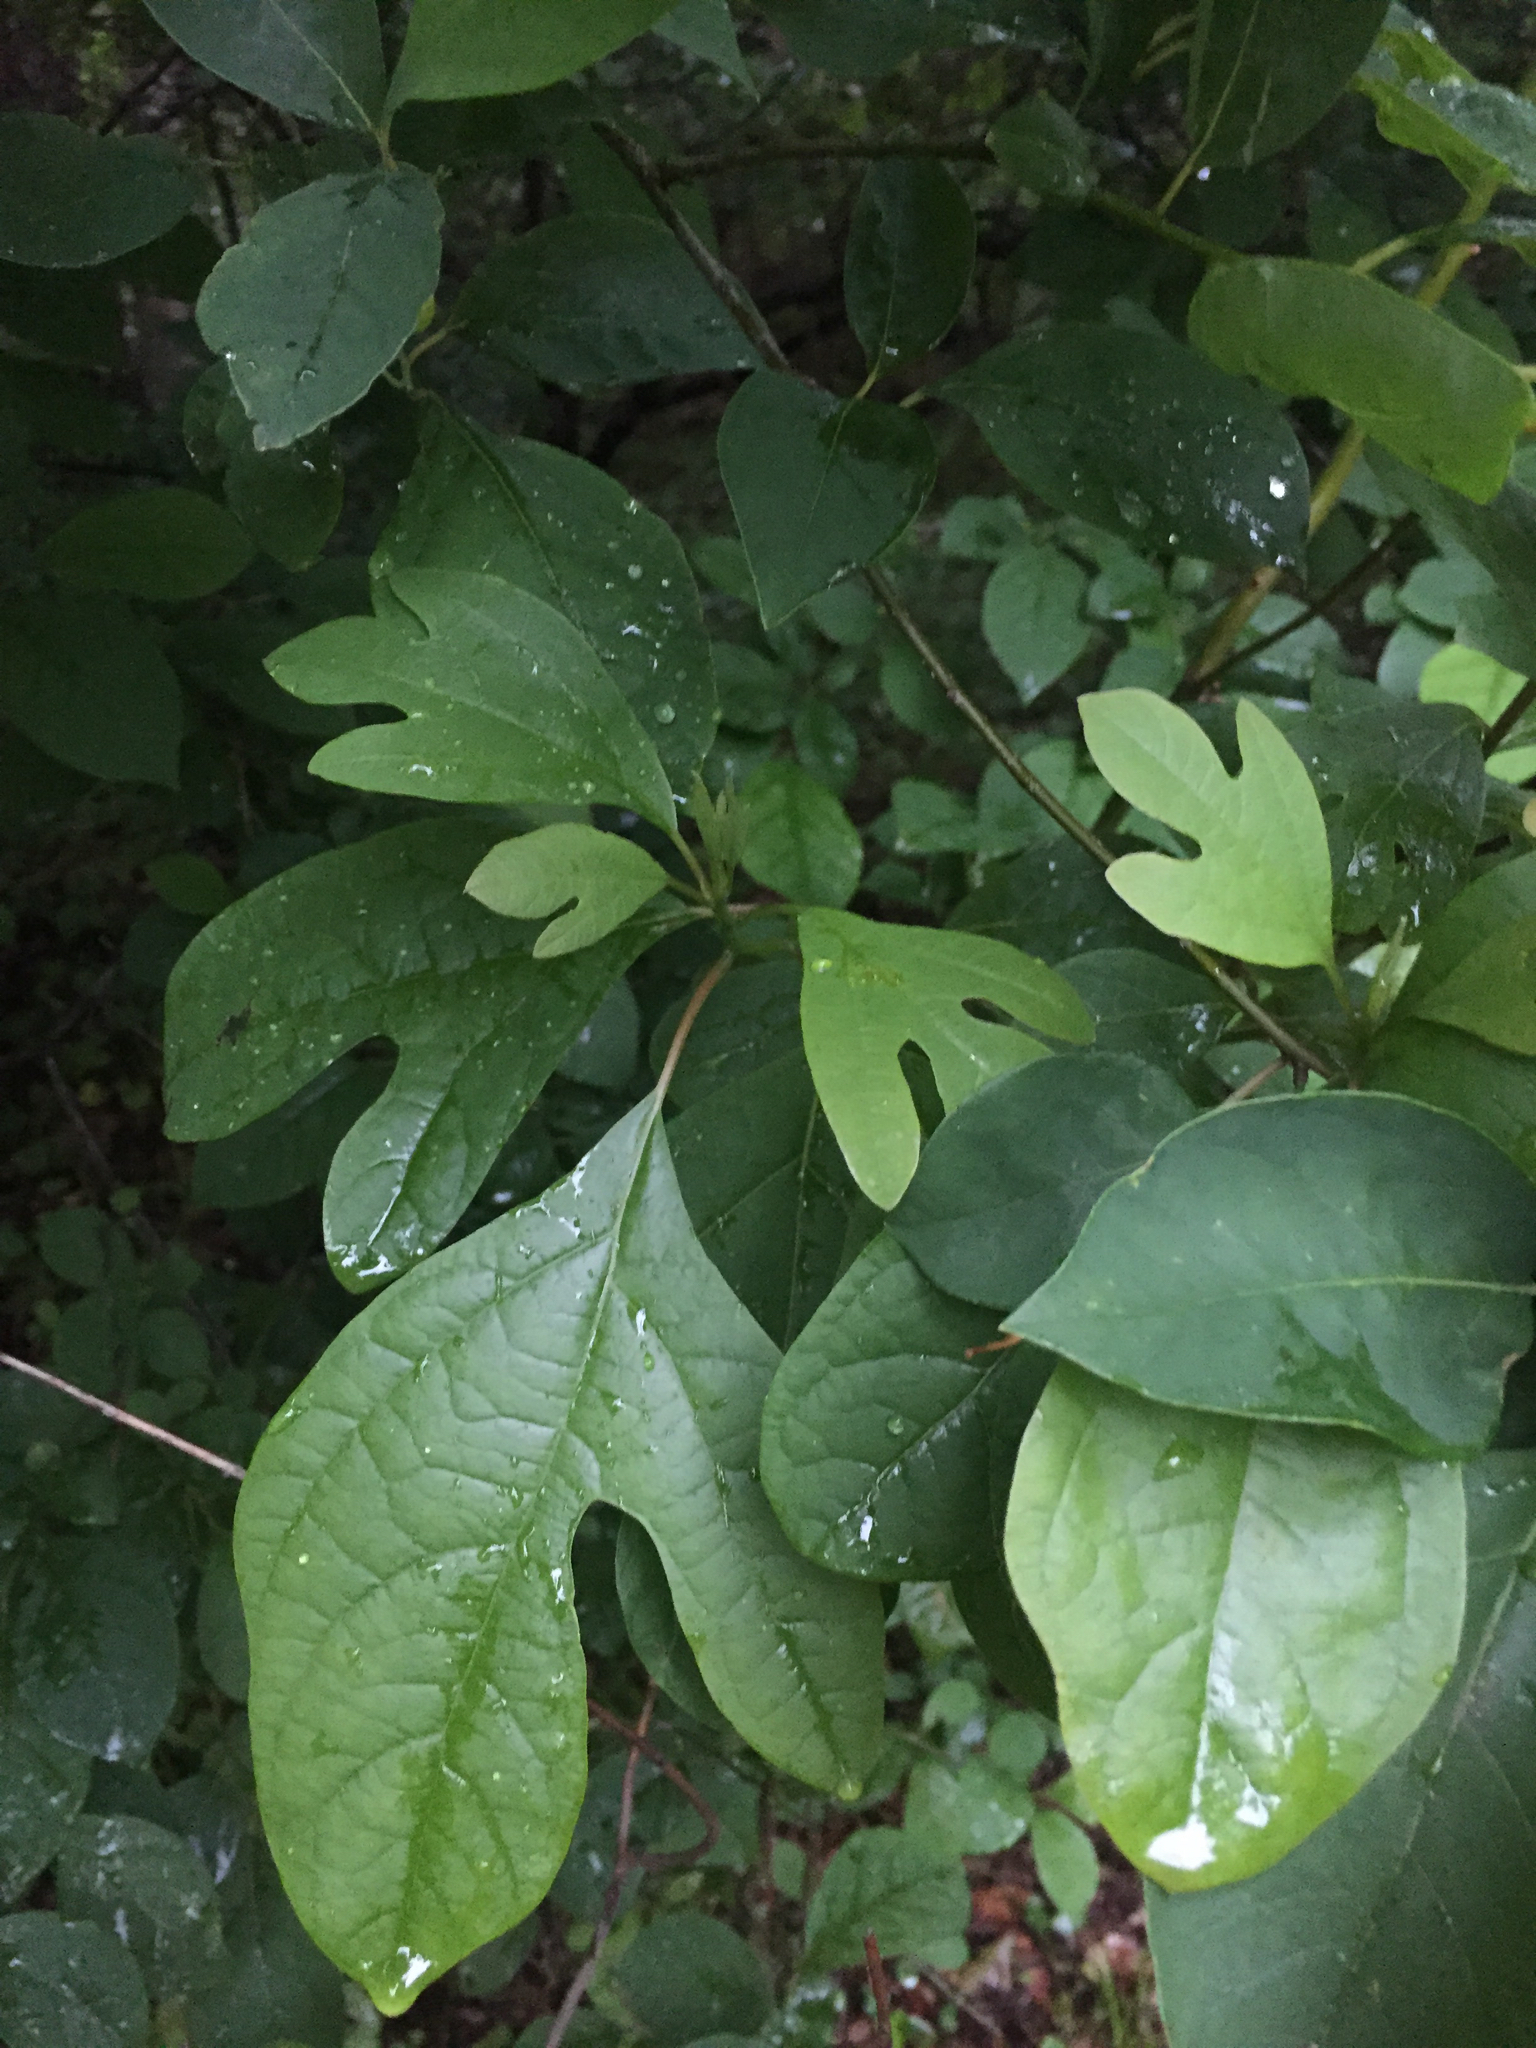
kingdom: Plantae
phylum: Tracheophyta
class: Magnoliopsida
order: Laurales
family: Lauraceae
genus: Sassafras
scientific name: Sassafras albidum
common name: Sassafras
